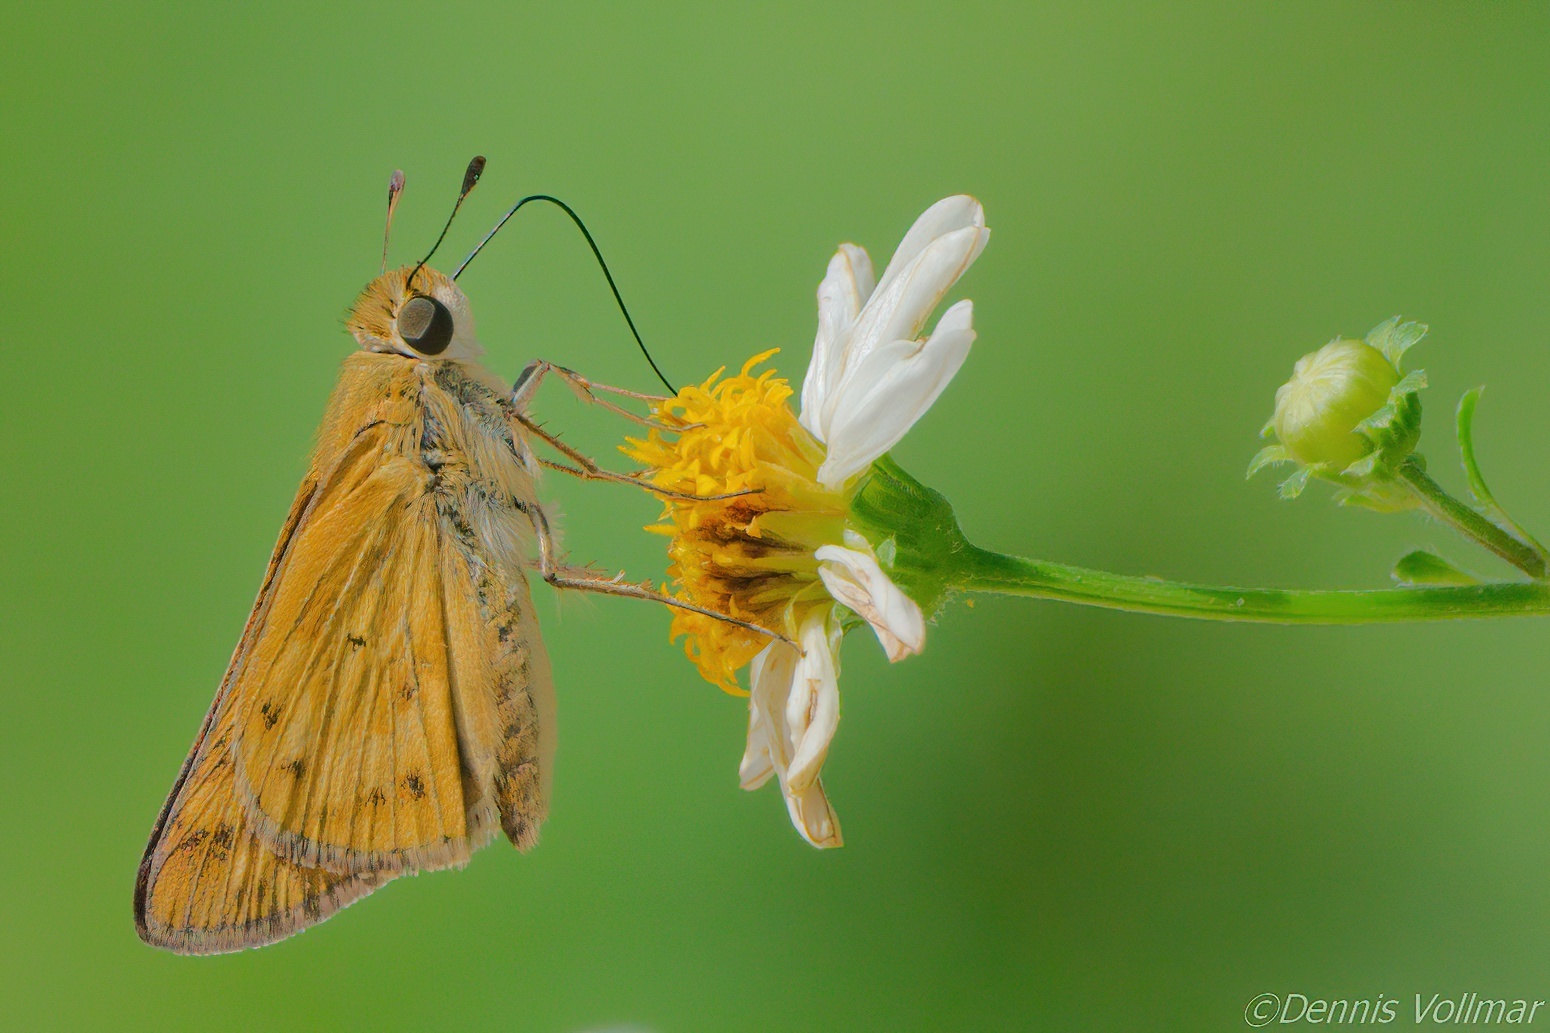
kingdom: Animalia
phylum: Arthropoda
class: Insecta
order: Lepidoptera
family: Hesperiidae
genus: Hylephila
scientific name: Hylephila phyleus
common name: Fiery skipper
